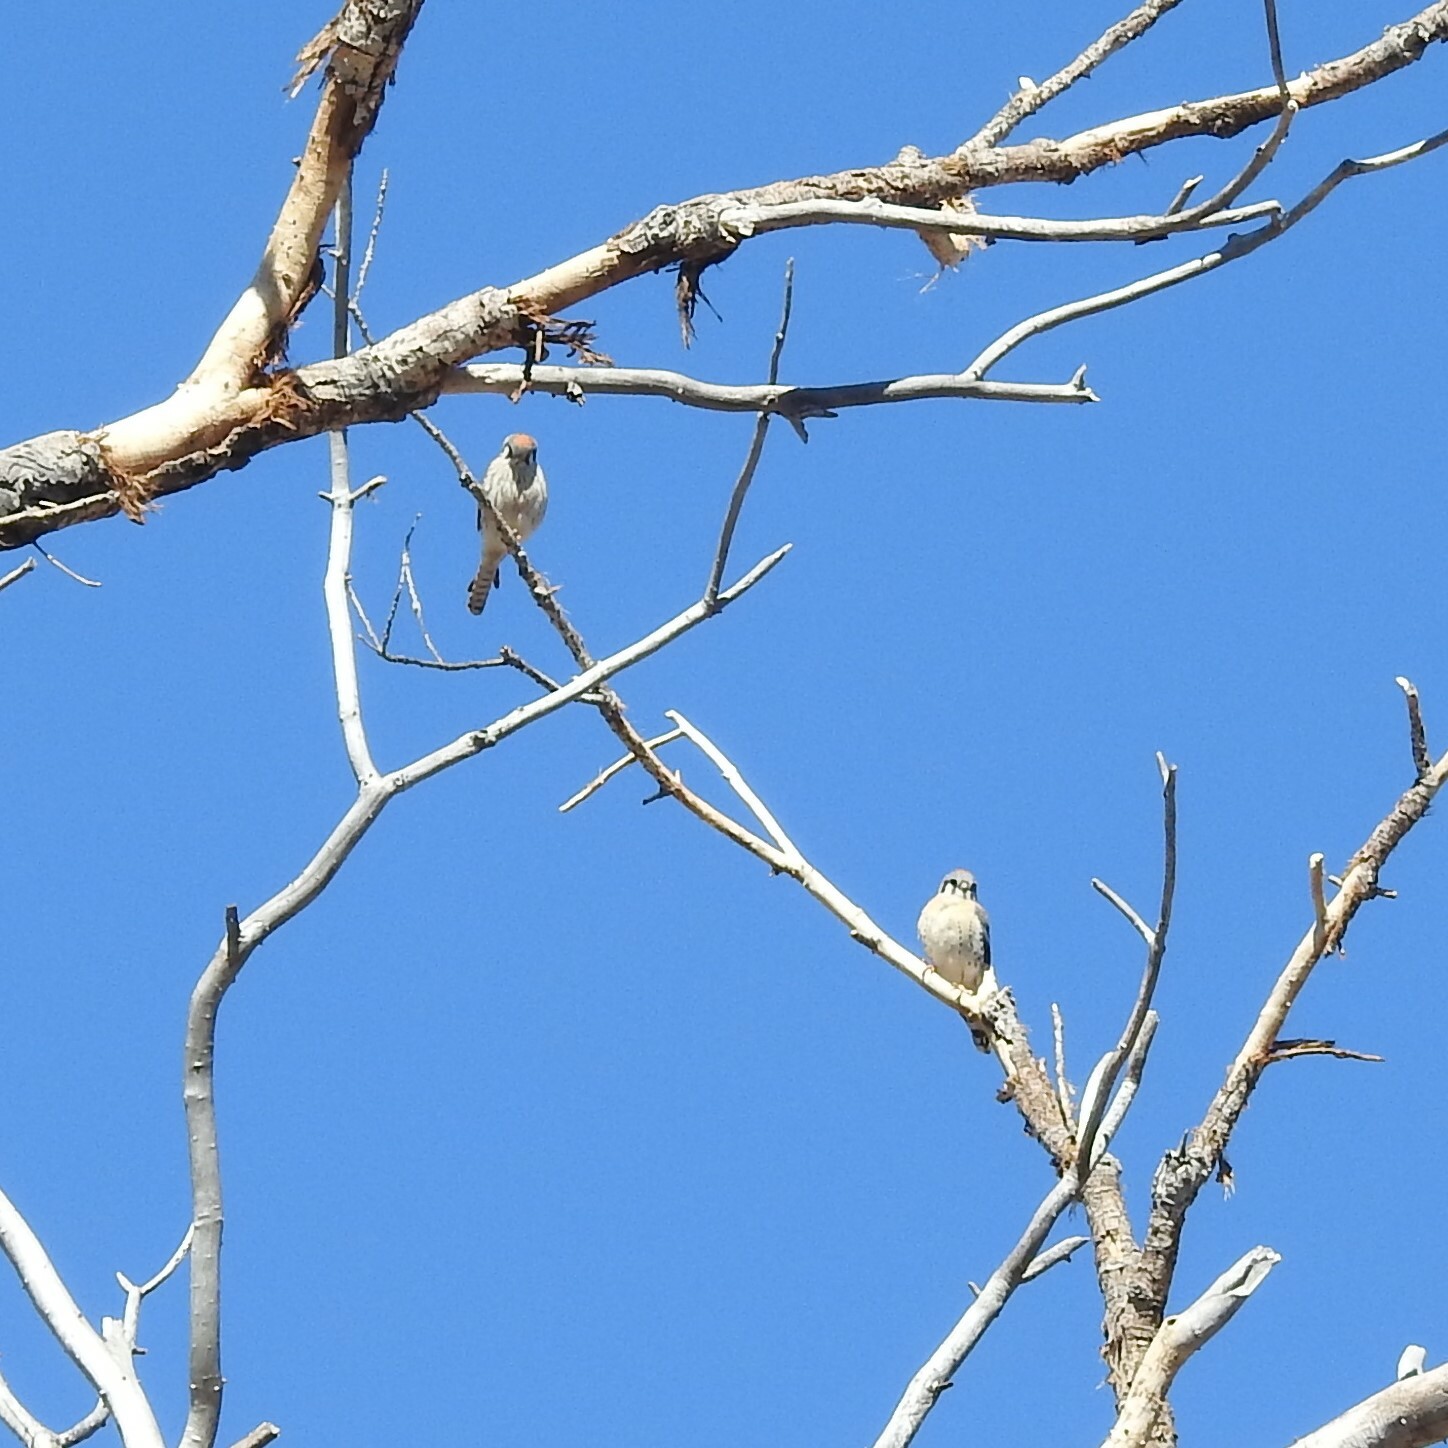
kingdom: Animalia
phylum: Chordata
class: Aves
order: Falconiformes
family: Falconidae
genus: Falco
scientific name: Falco sparverius
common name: American kestrel
